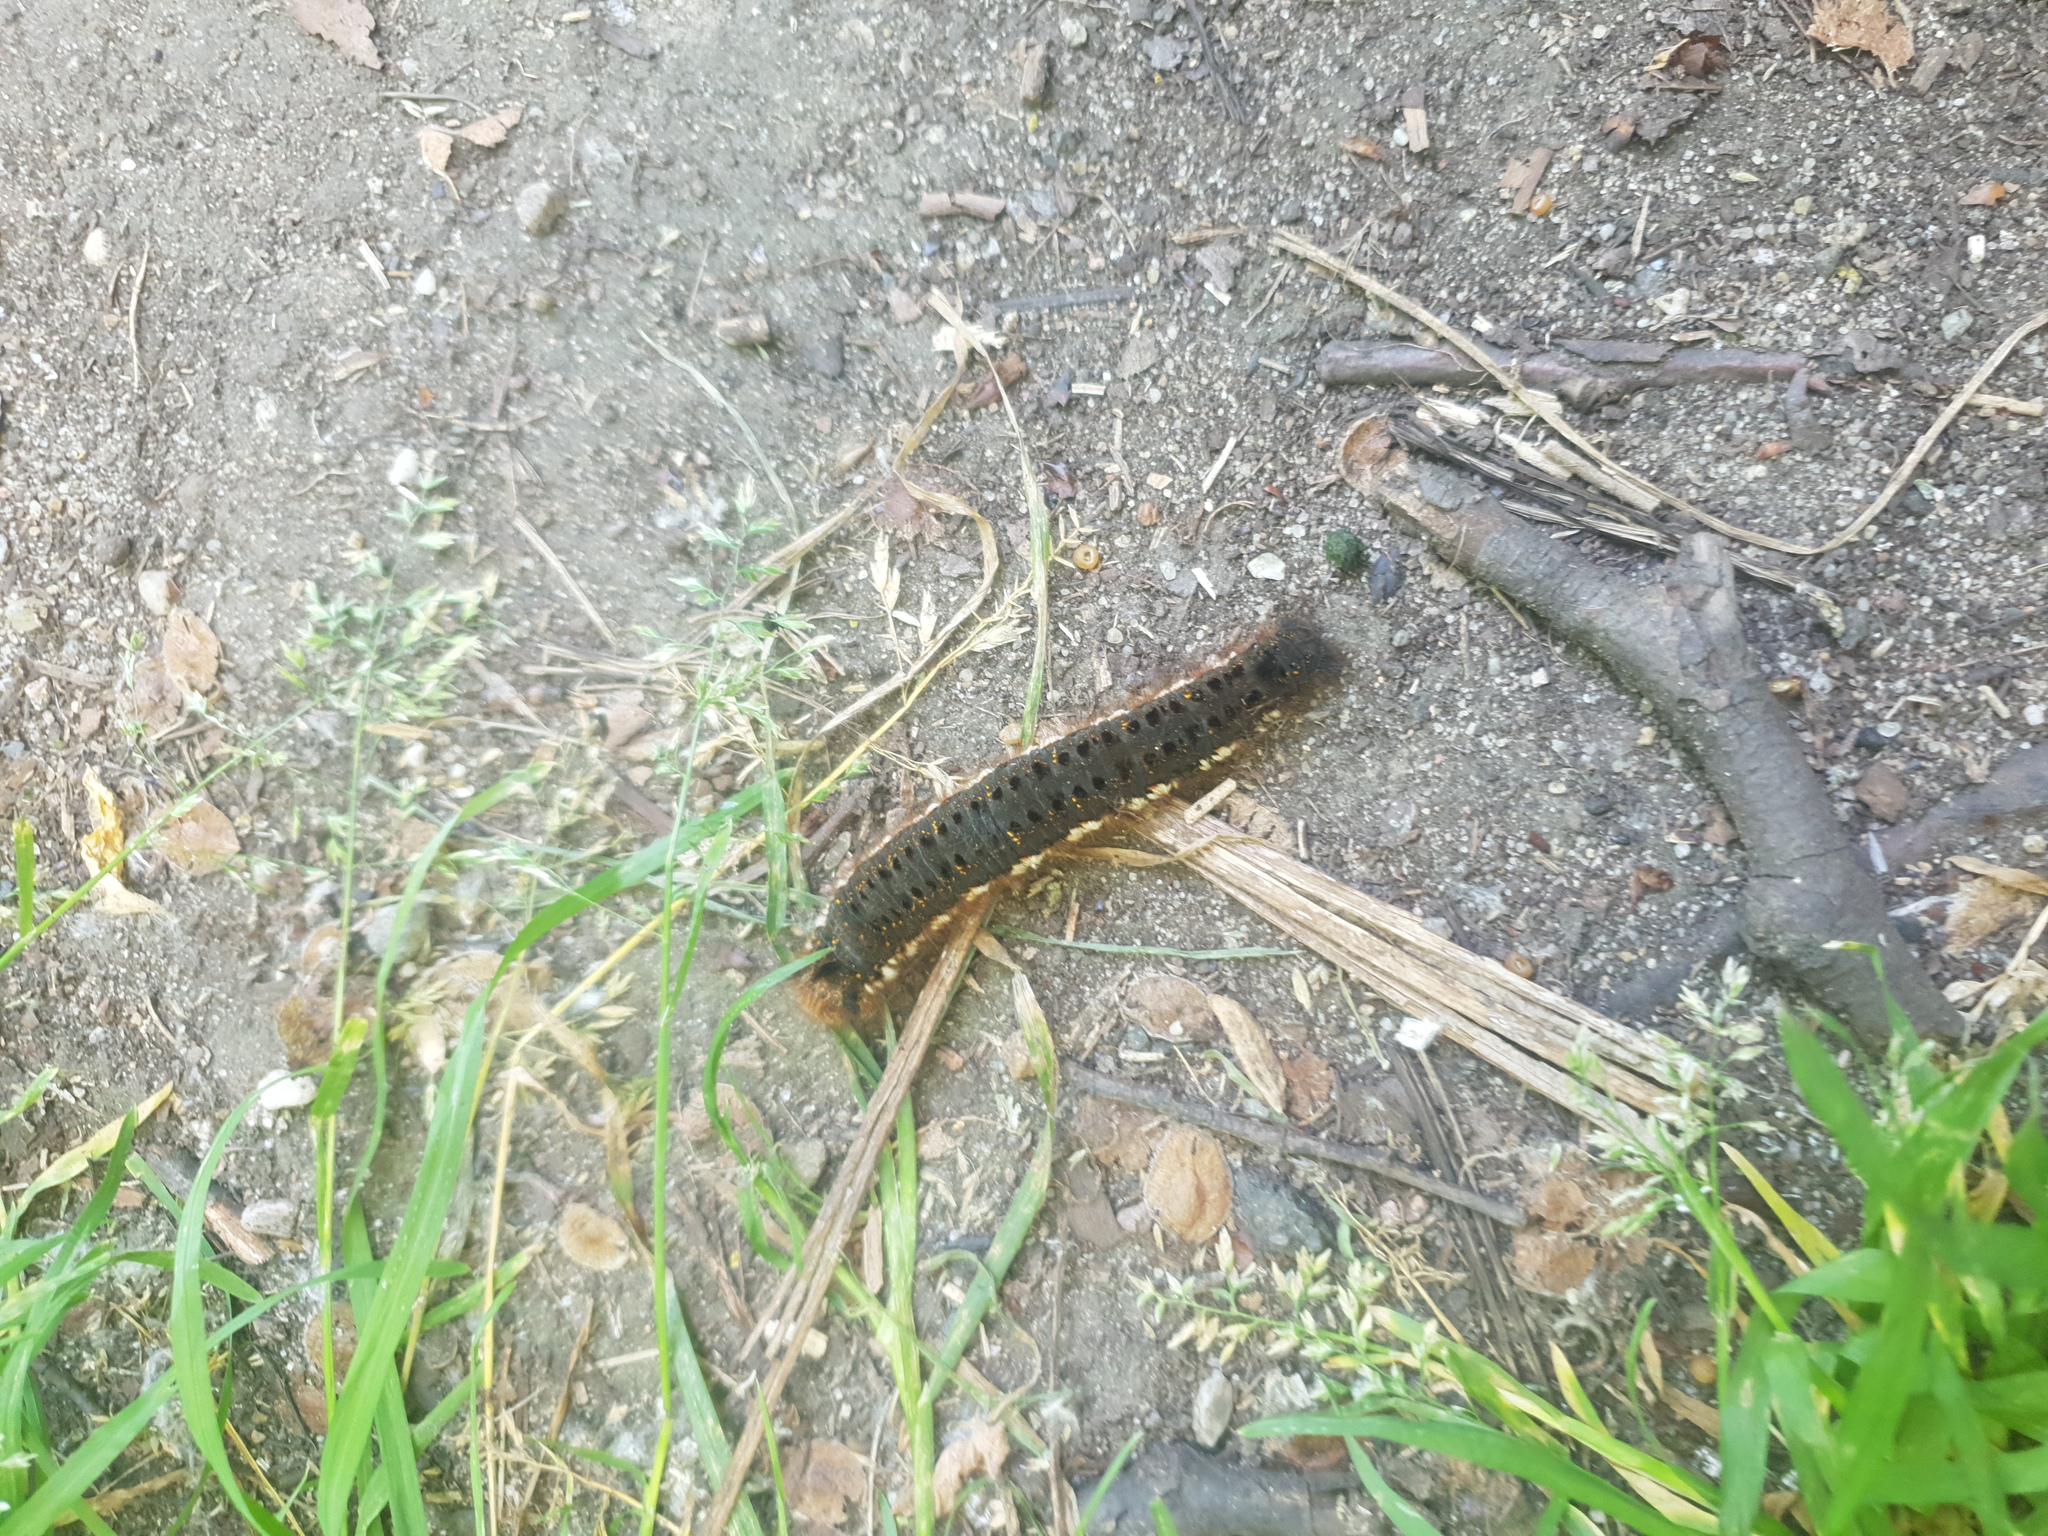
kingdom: Animalia
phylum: Arthropoda
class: Insecta
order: Lepidoptera
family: Lasiocampidae
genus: Euthrix
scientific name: Euthrix potatoria
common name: Drinker
